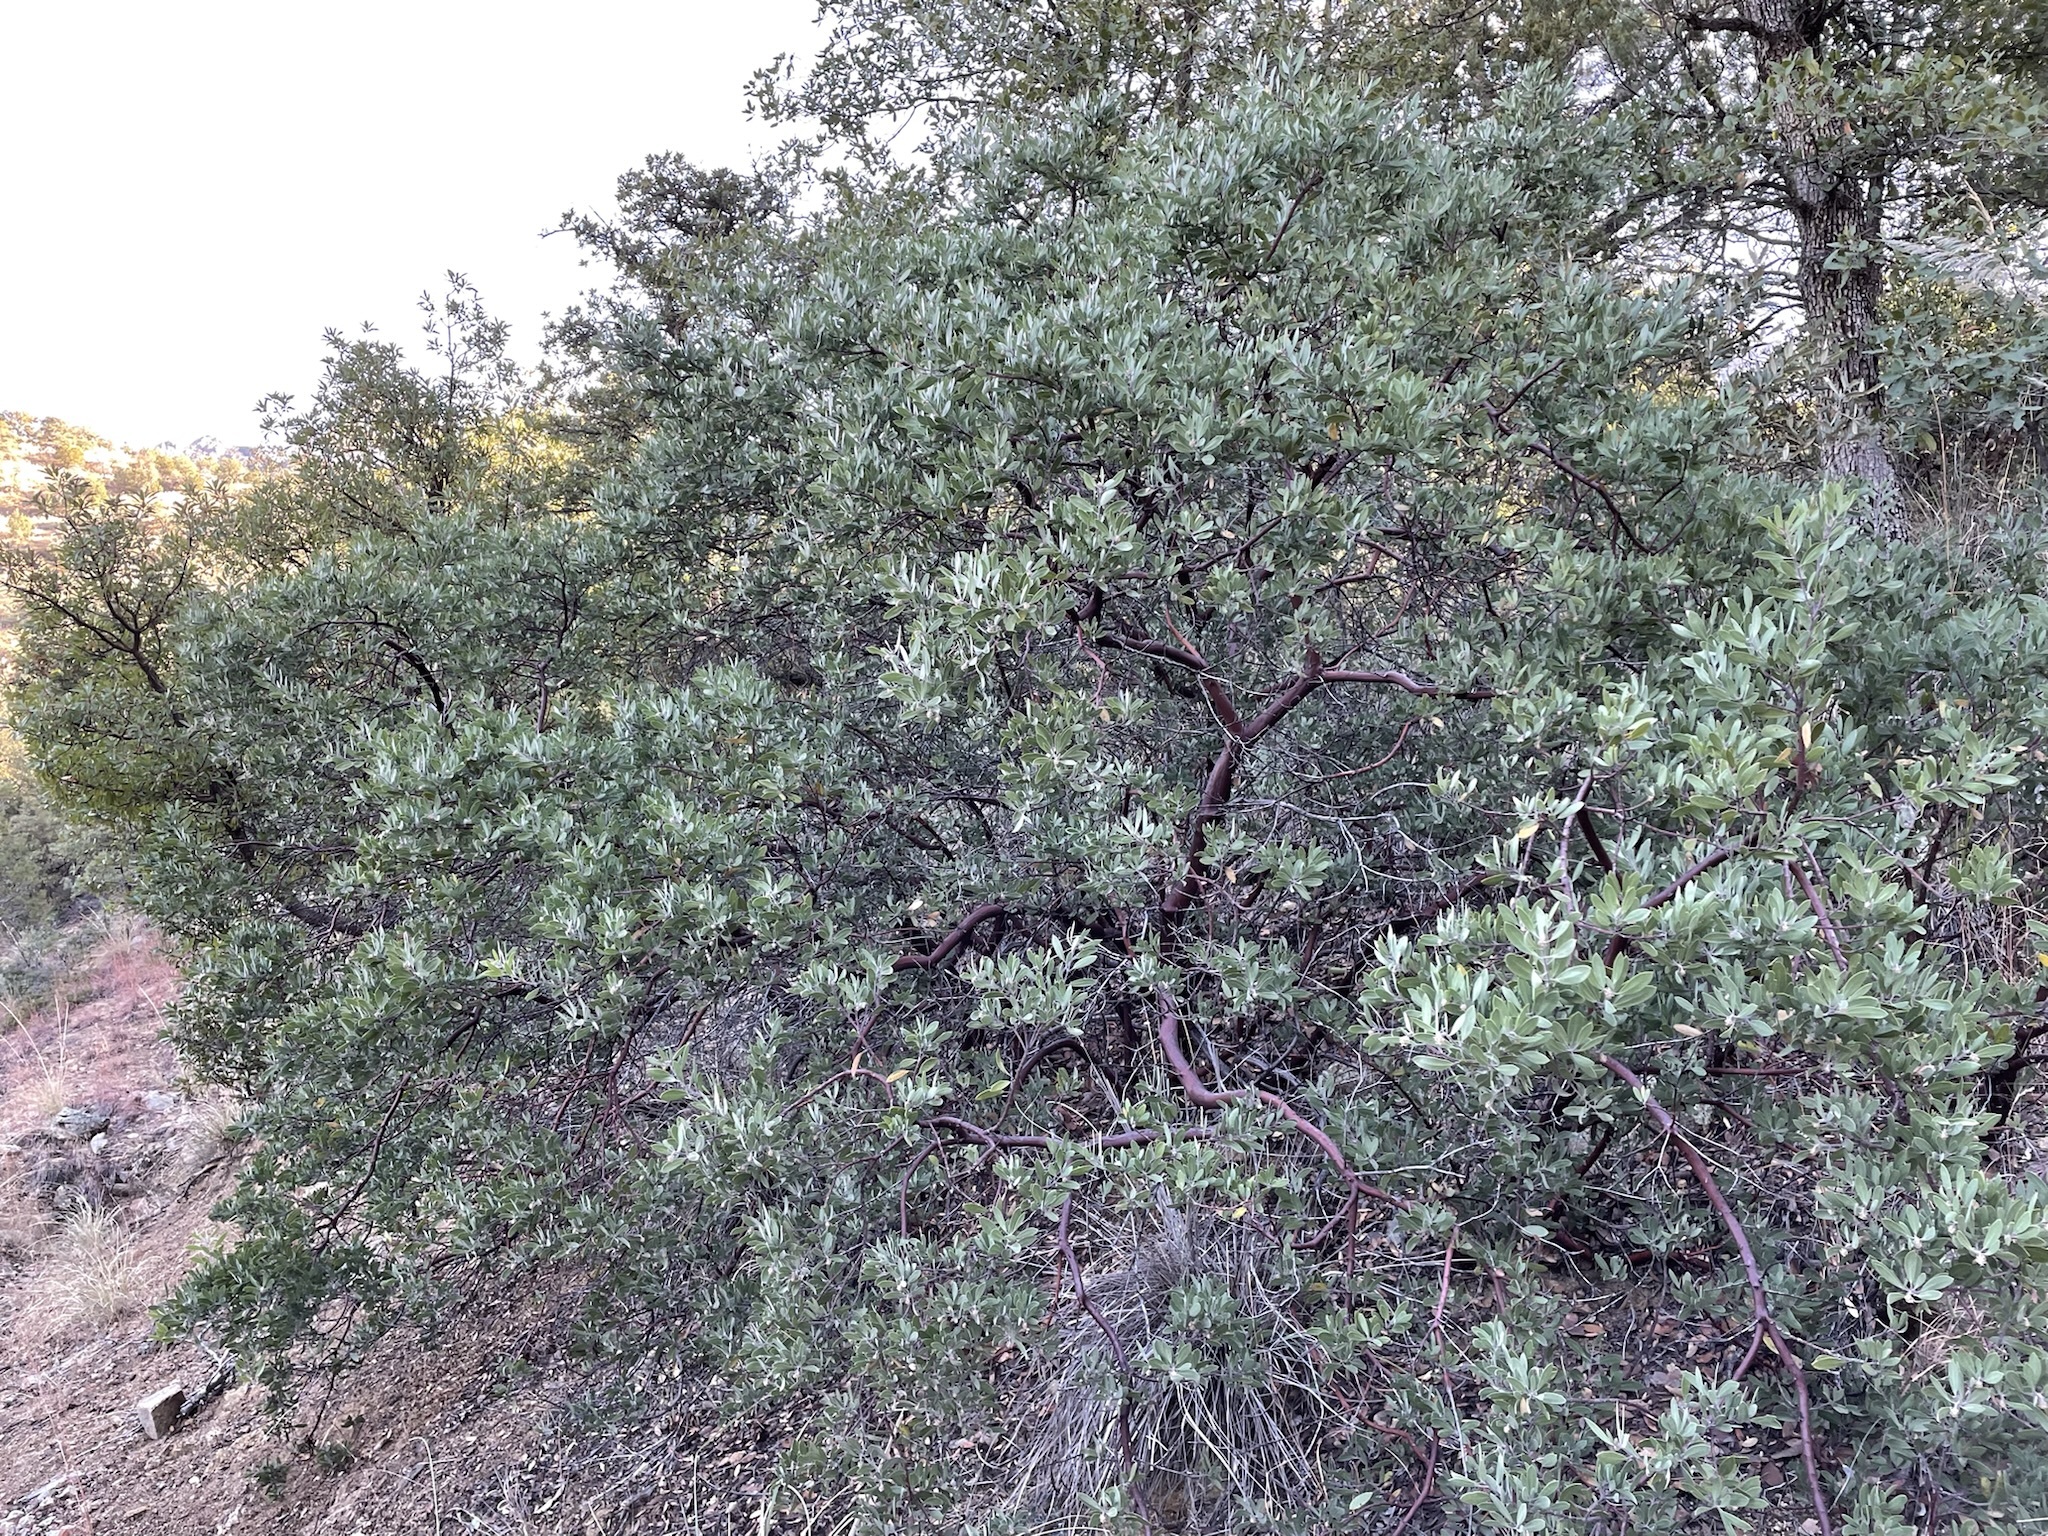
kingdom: Plantae
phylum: Tracheophyta
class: Magnoliopsida
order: Ericales
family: Ericaceae
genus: Arctostaphylos
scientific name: Arctostaphylos pungens
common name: Mexican manzanita
